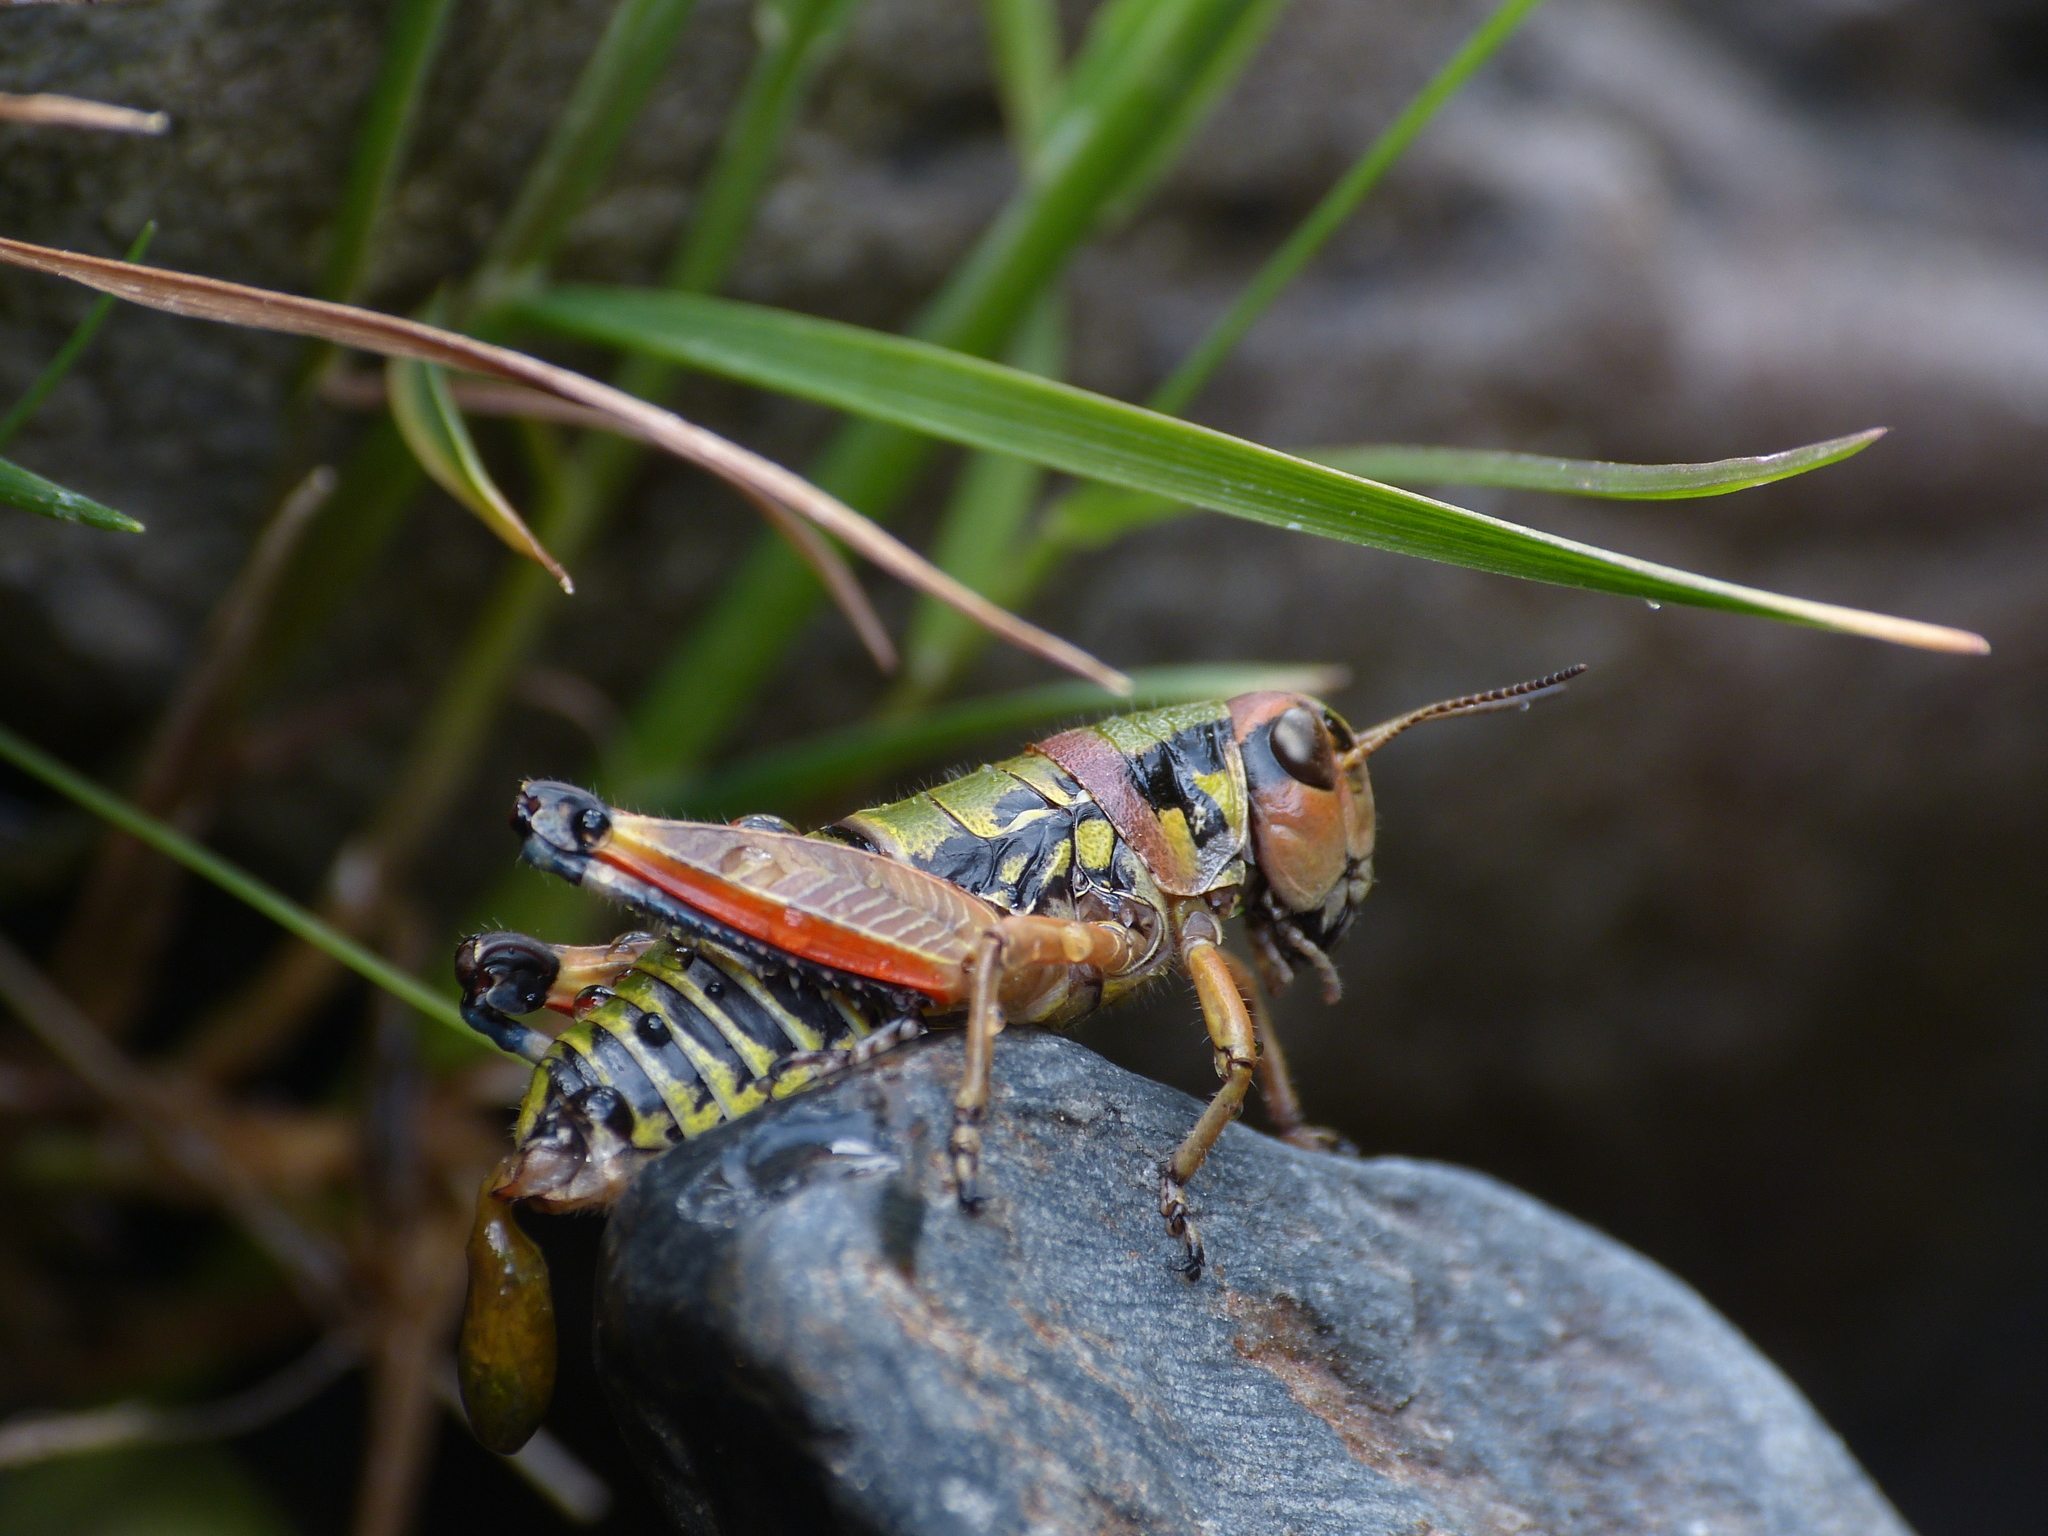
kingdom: Animalia
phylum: Arthropoda
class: Insecta
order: Orthoptera
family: Acrididae
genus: Cophopodisma
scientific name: Cophopodisma pyrenaea
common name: Pyrenean mountain grasshopper
